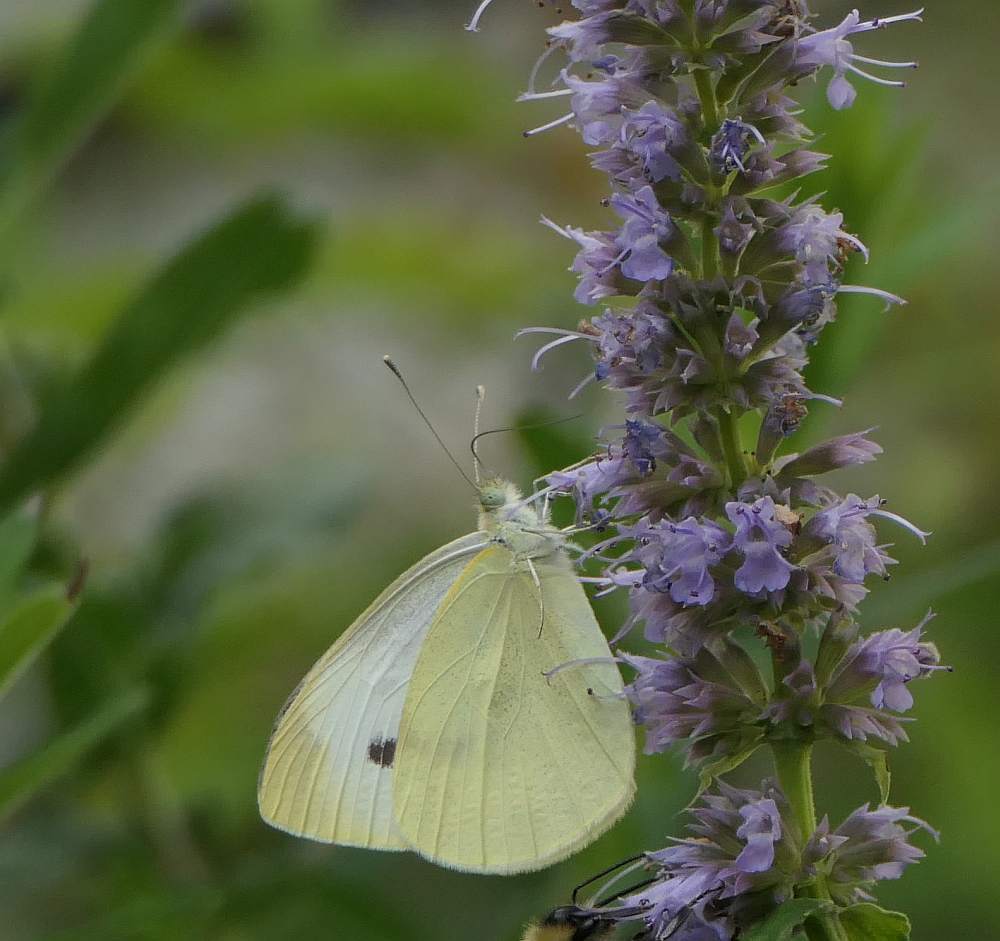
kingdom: Animalia
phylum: Arthropoda
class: Insecta
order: Lepidoptera
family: Pieridae
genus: Pieris
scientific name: Pieris rapae
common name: Small white
